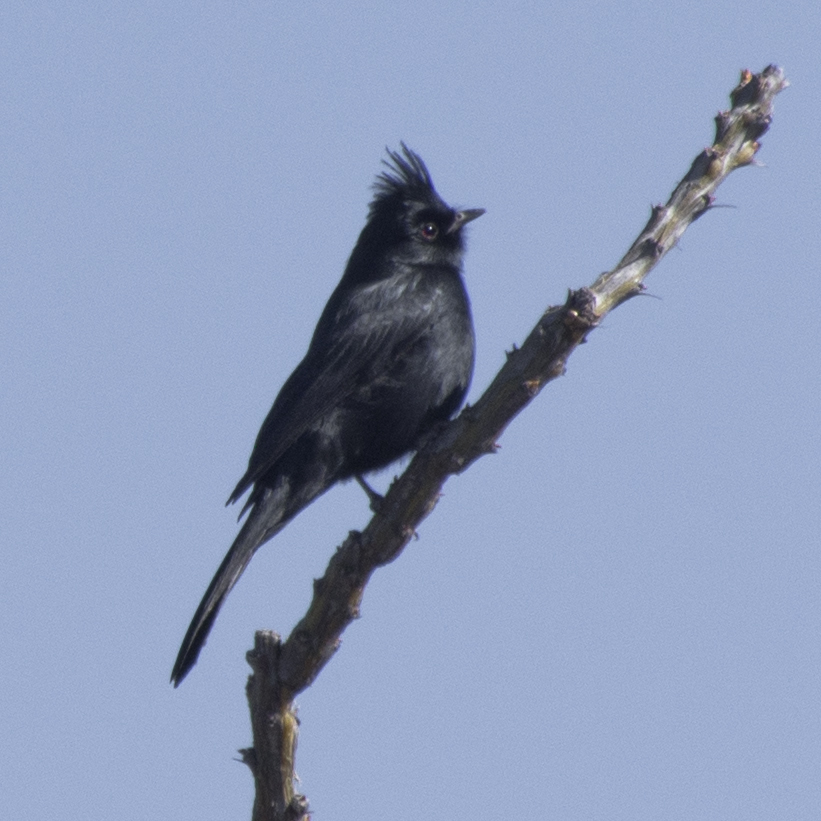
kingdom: Animalia
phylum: Chordata
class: Aves
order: Passeriformes
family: Ptilogonatidae
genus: Phainopepla
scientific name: Phainopepla nitens
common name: Phainopepla
